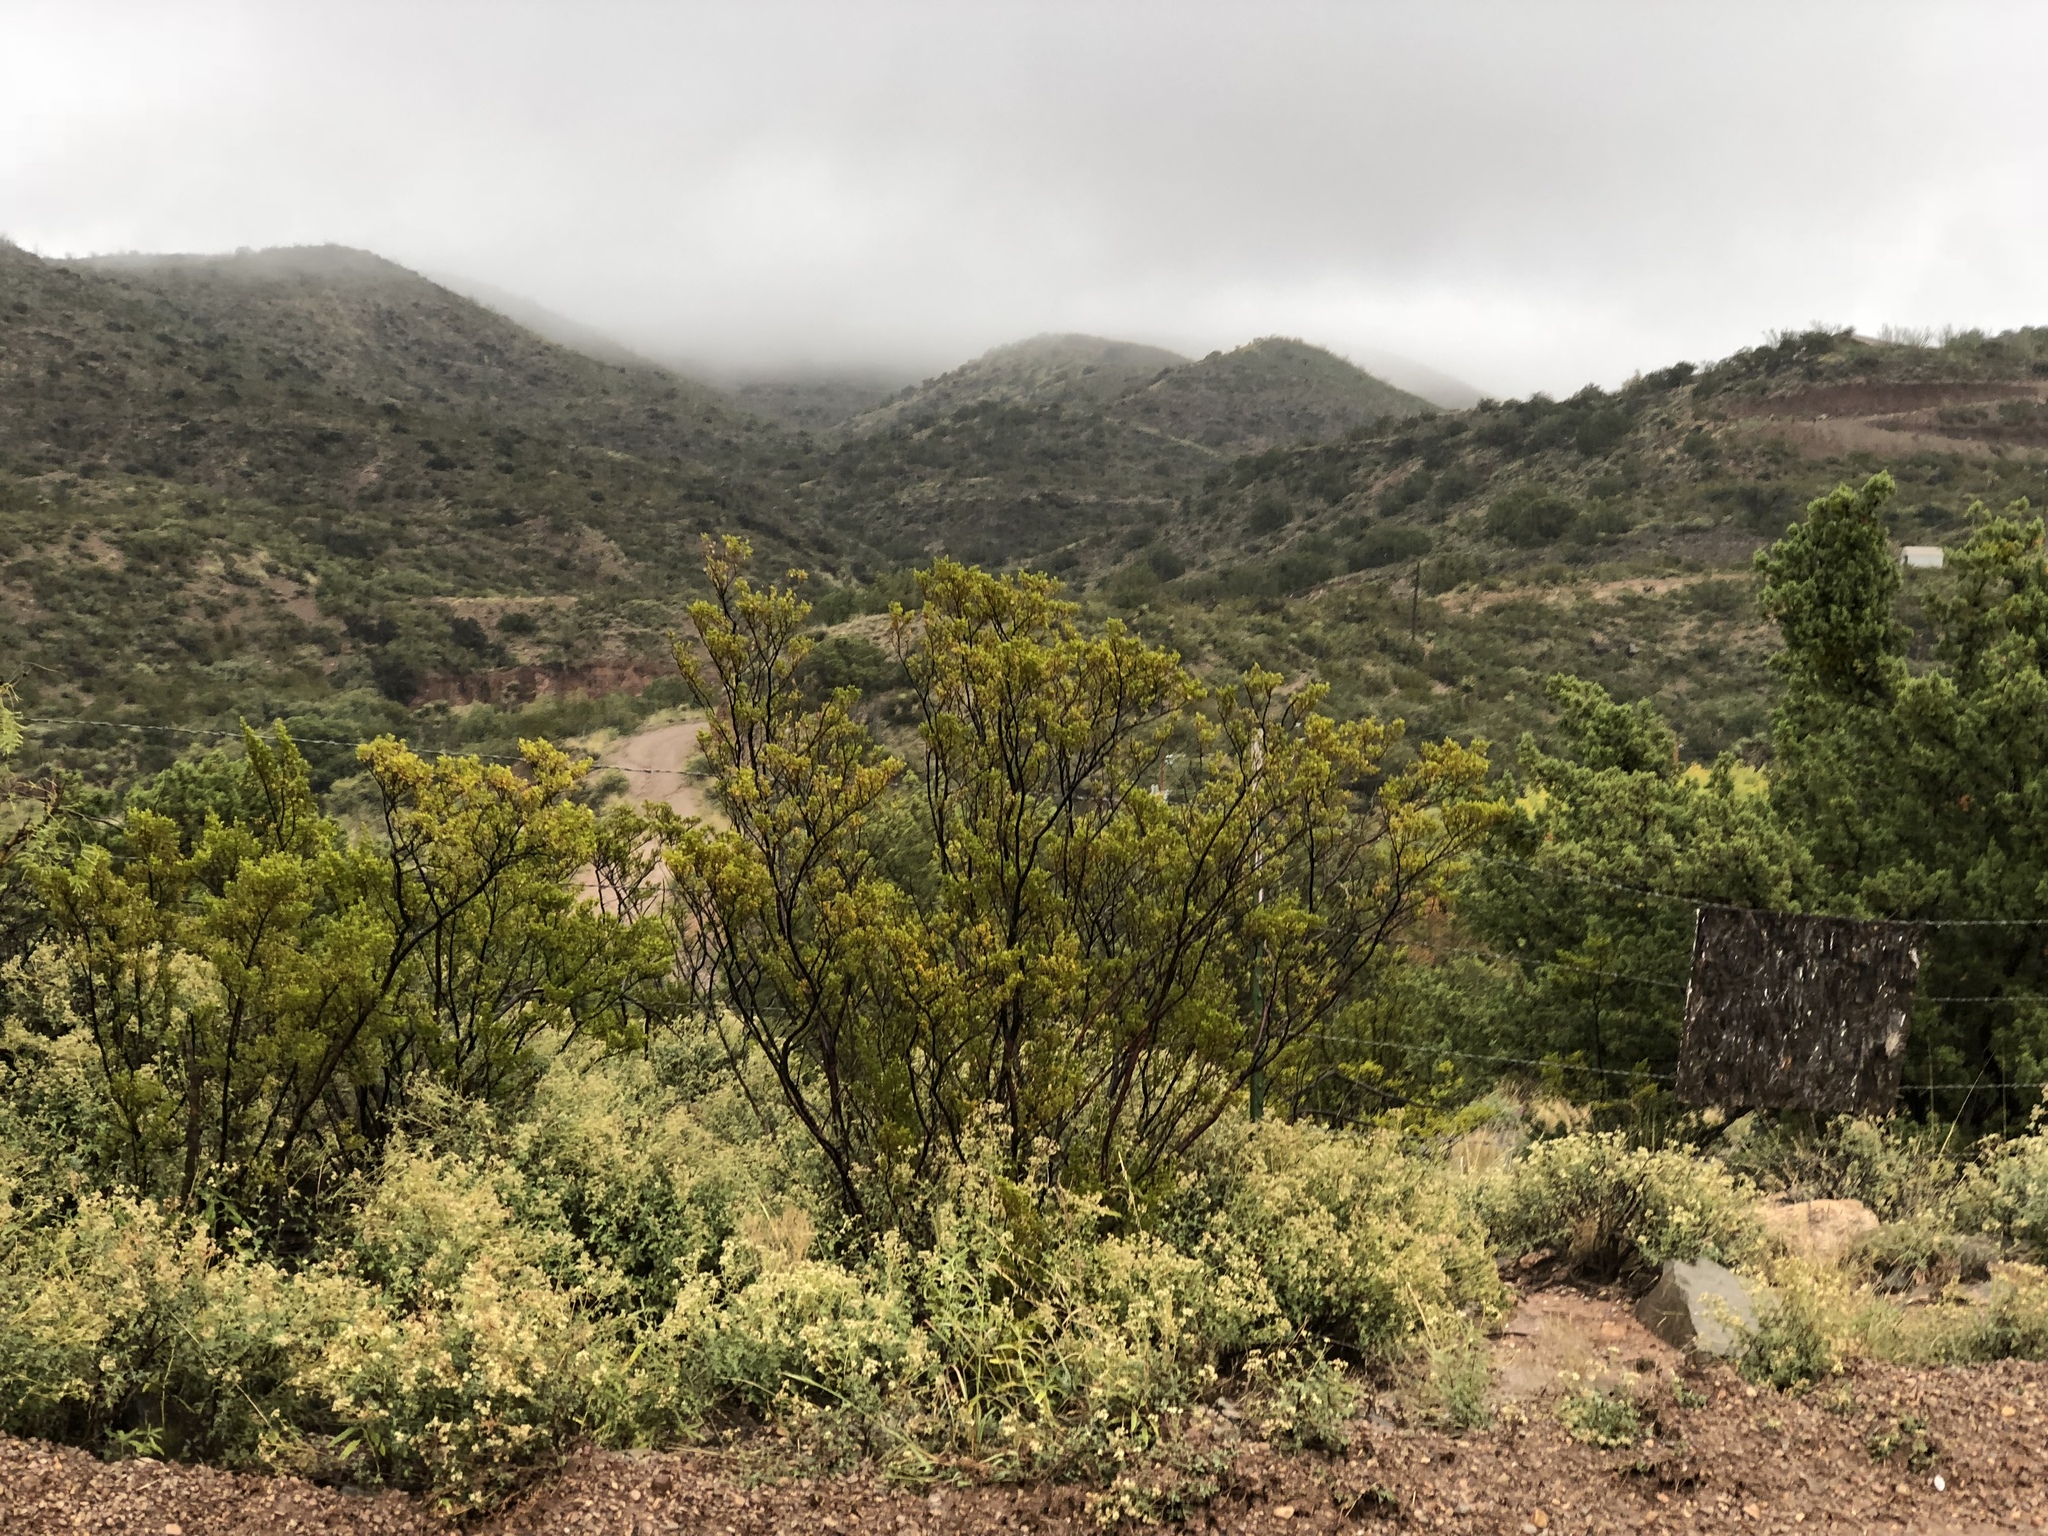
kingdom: Plantae
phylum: Tracheophyta
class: Magnoliopsida
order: Zygophyllales
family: Zygophyllaceae
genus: Larrea
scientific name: Larrea tridentata
